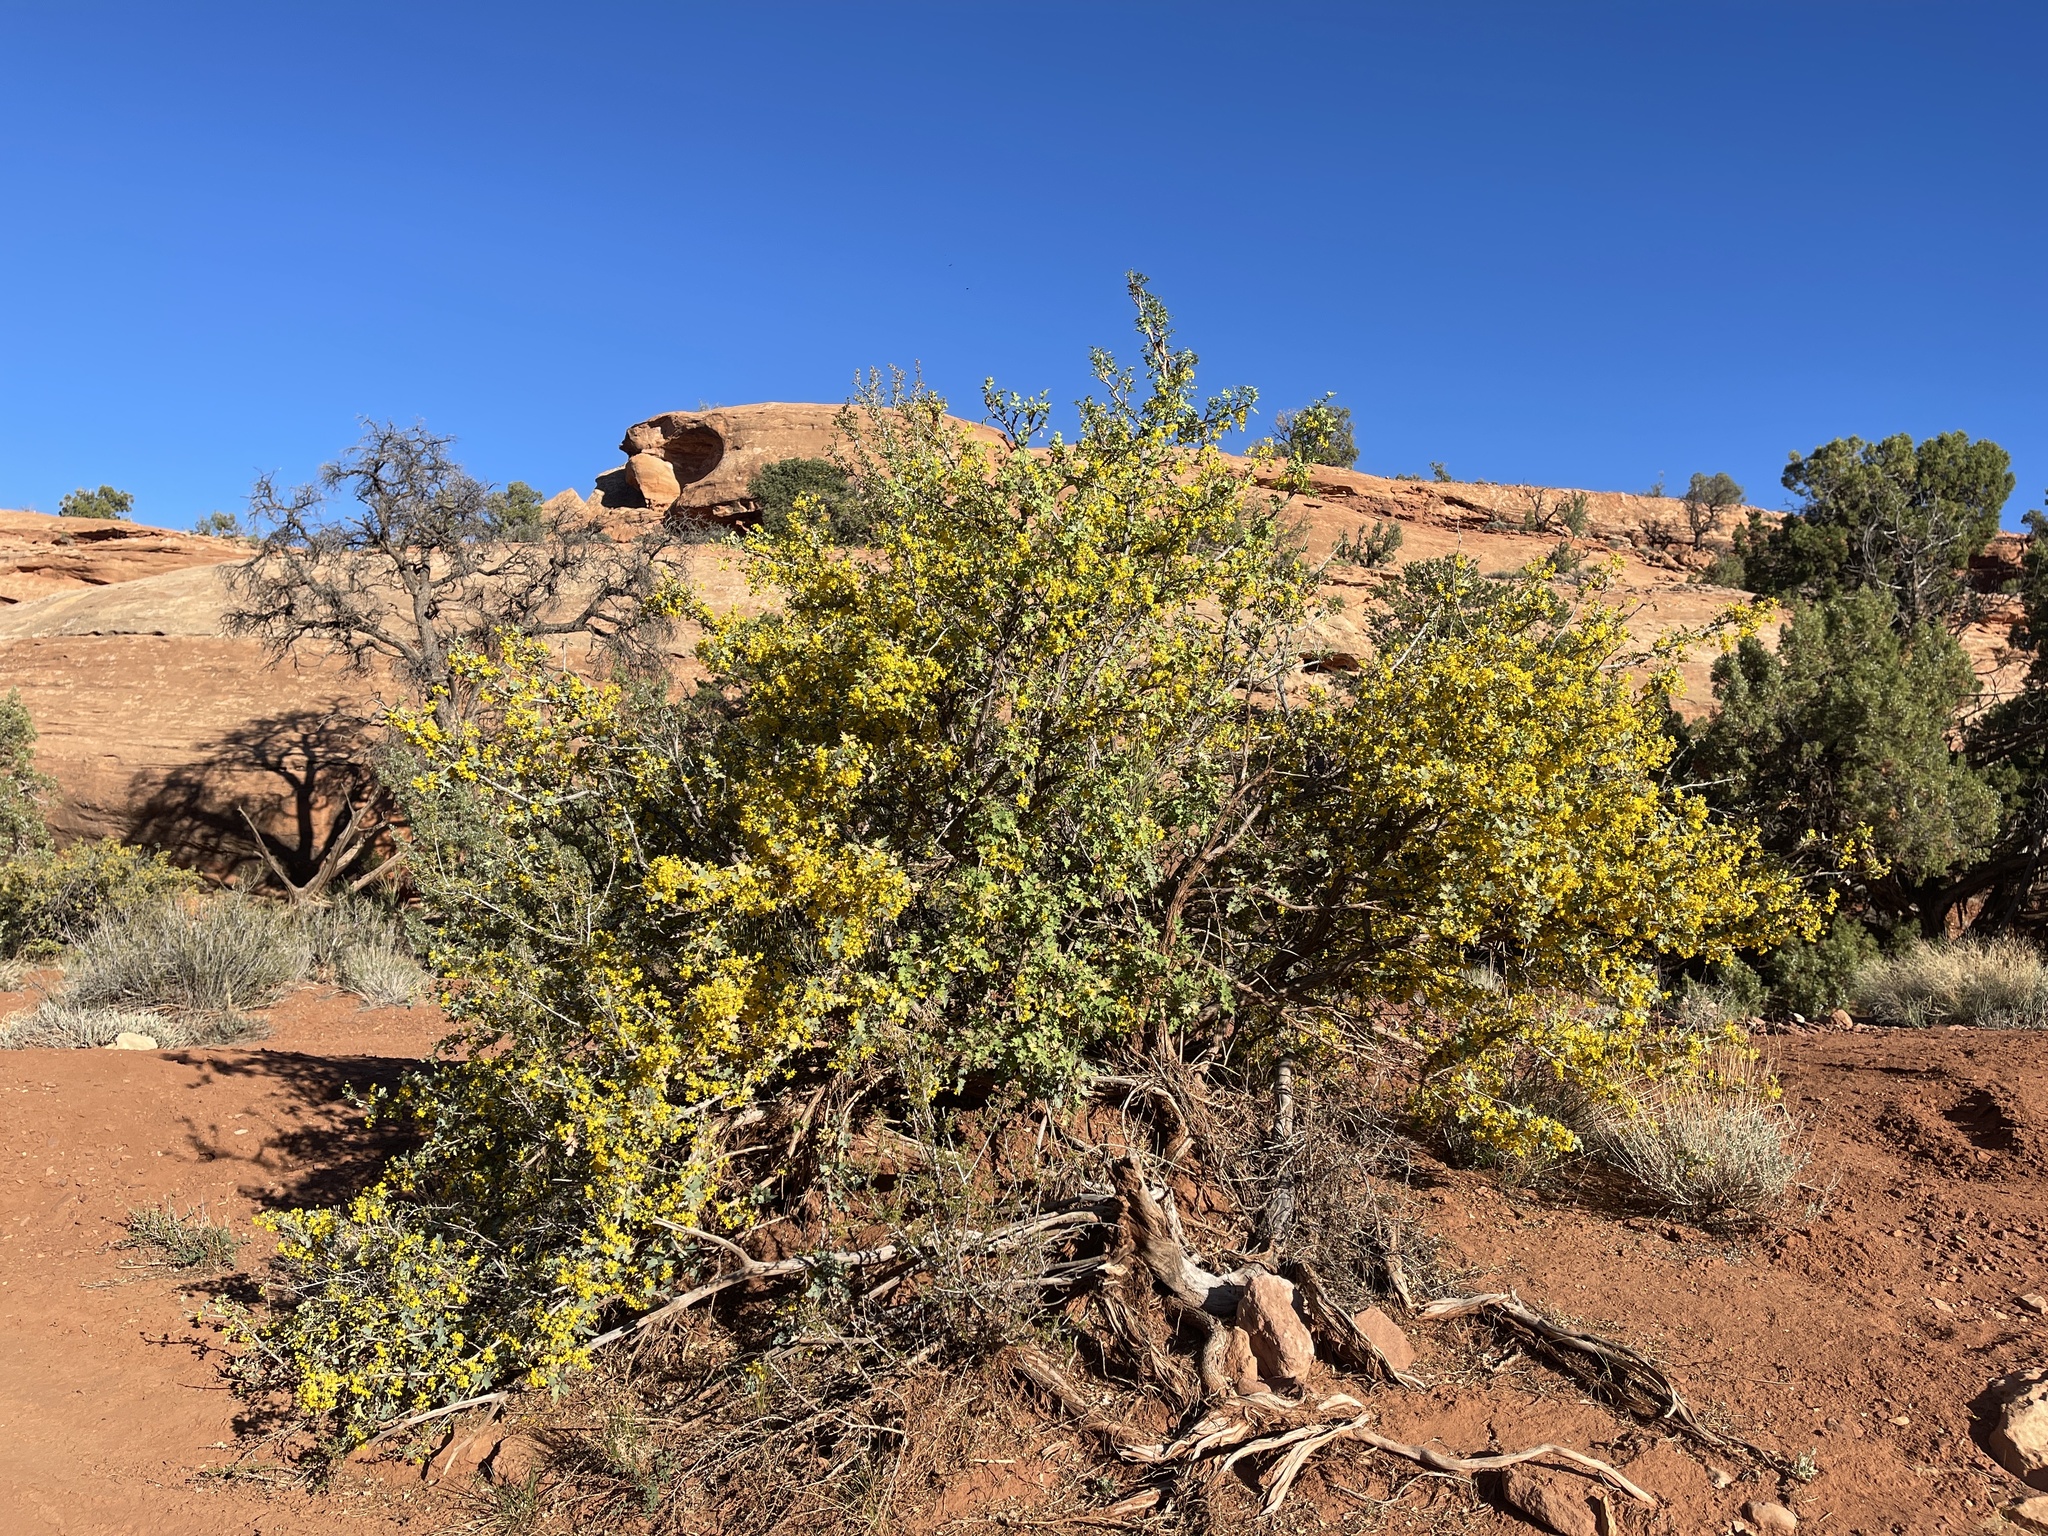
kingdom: Plantae
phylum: Tracheophyta
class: Magnoliopsida
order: Ranunculales
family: Berberidaceae
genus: Alloberberis
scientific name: Alloberberis fremontii
